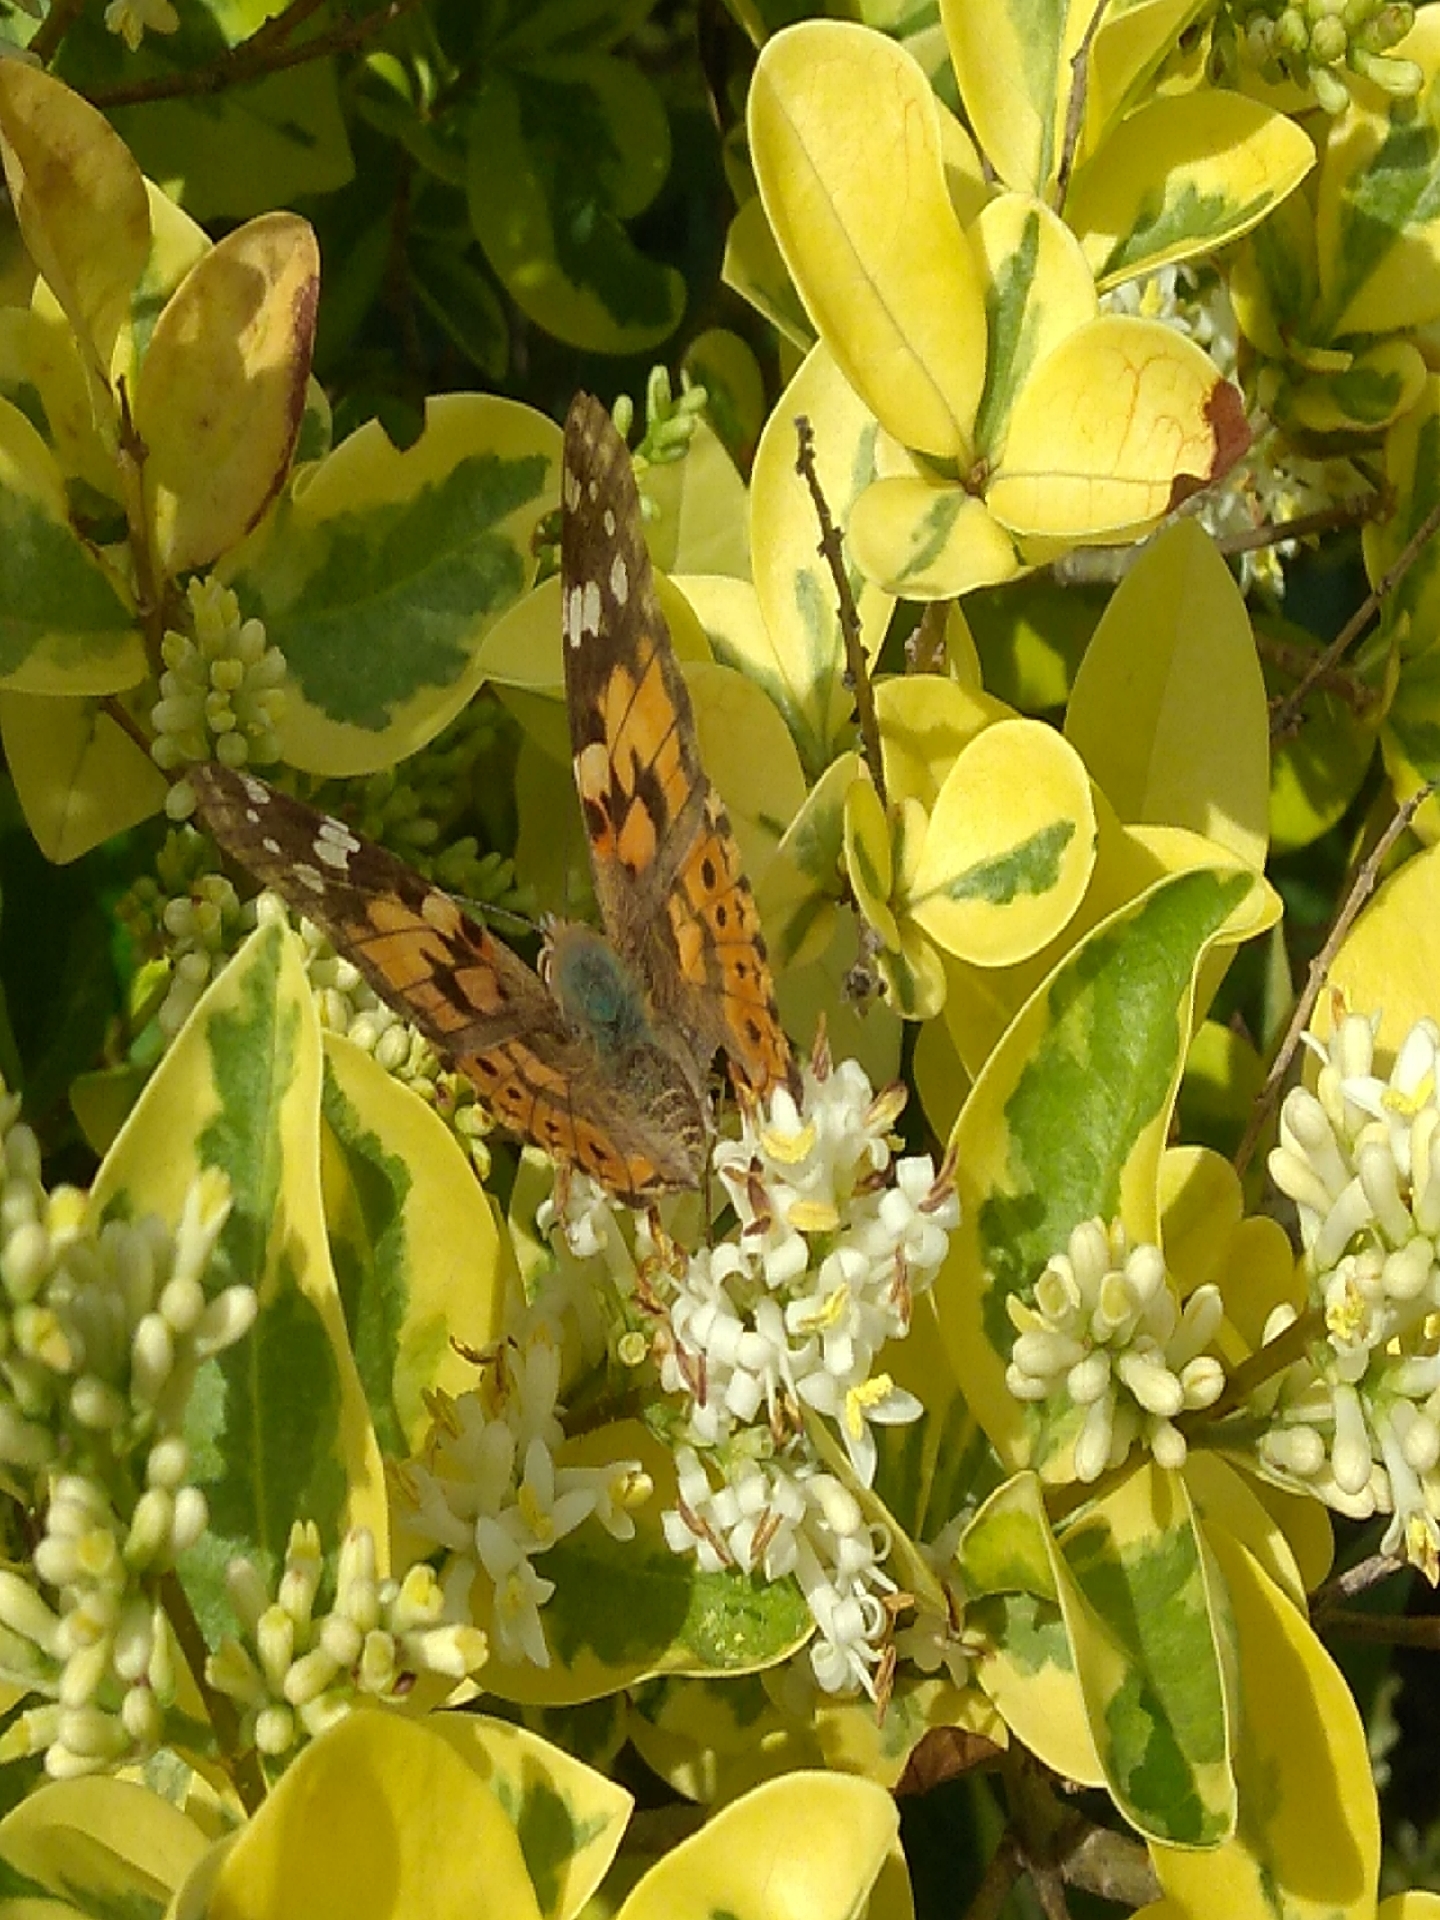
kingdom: Animalia
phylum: Arthropoda
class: Insecta
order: Lepidoptera
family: Nymphalidae
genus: Vanessa
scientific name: Vanessa cardui
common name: Painted lady
